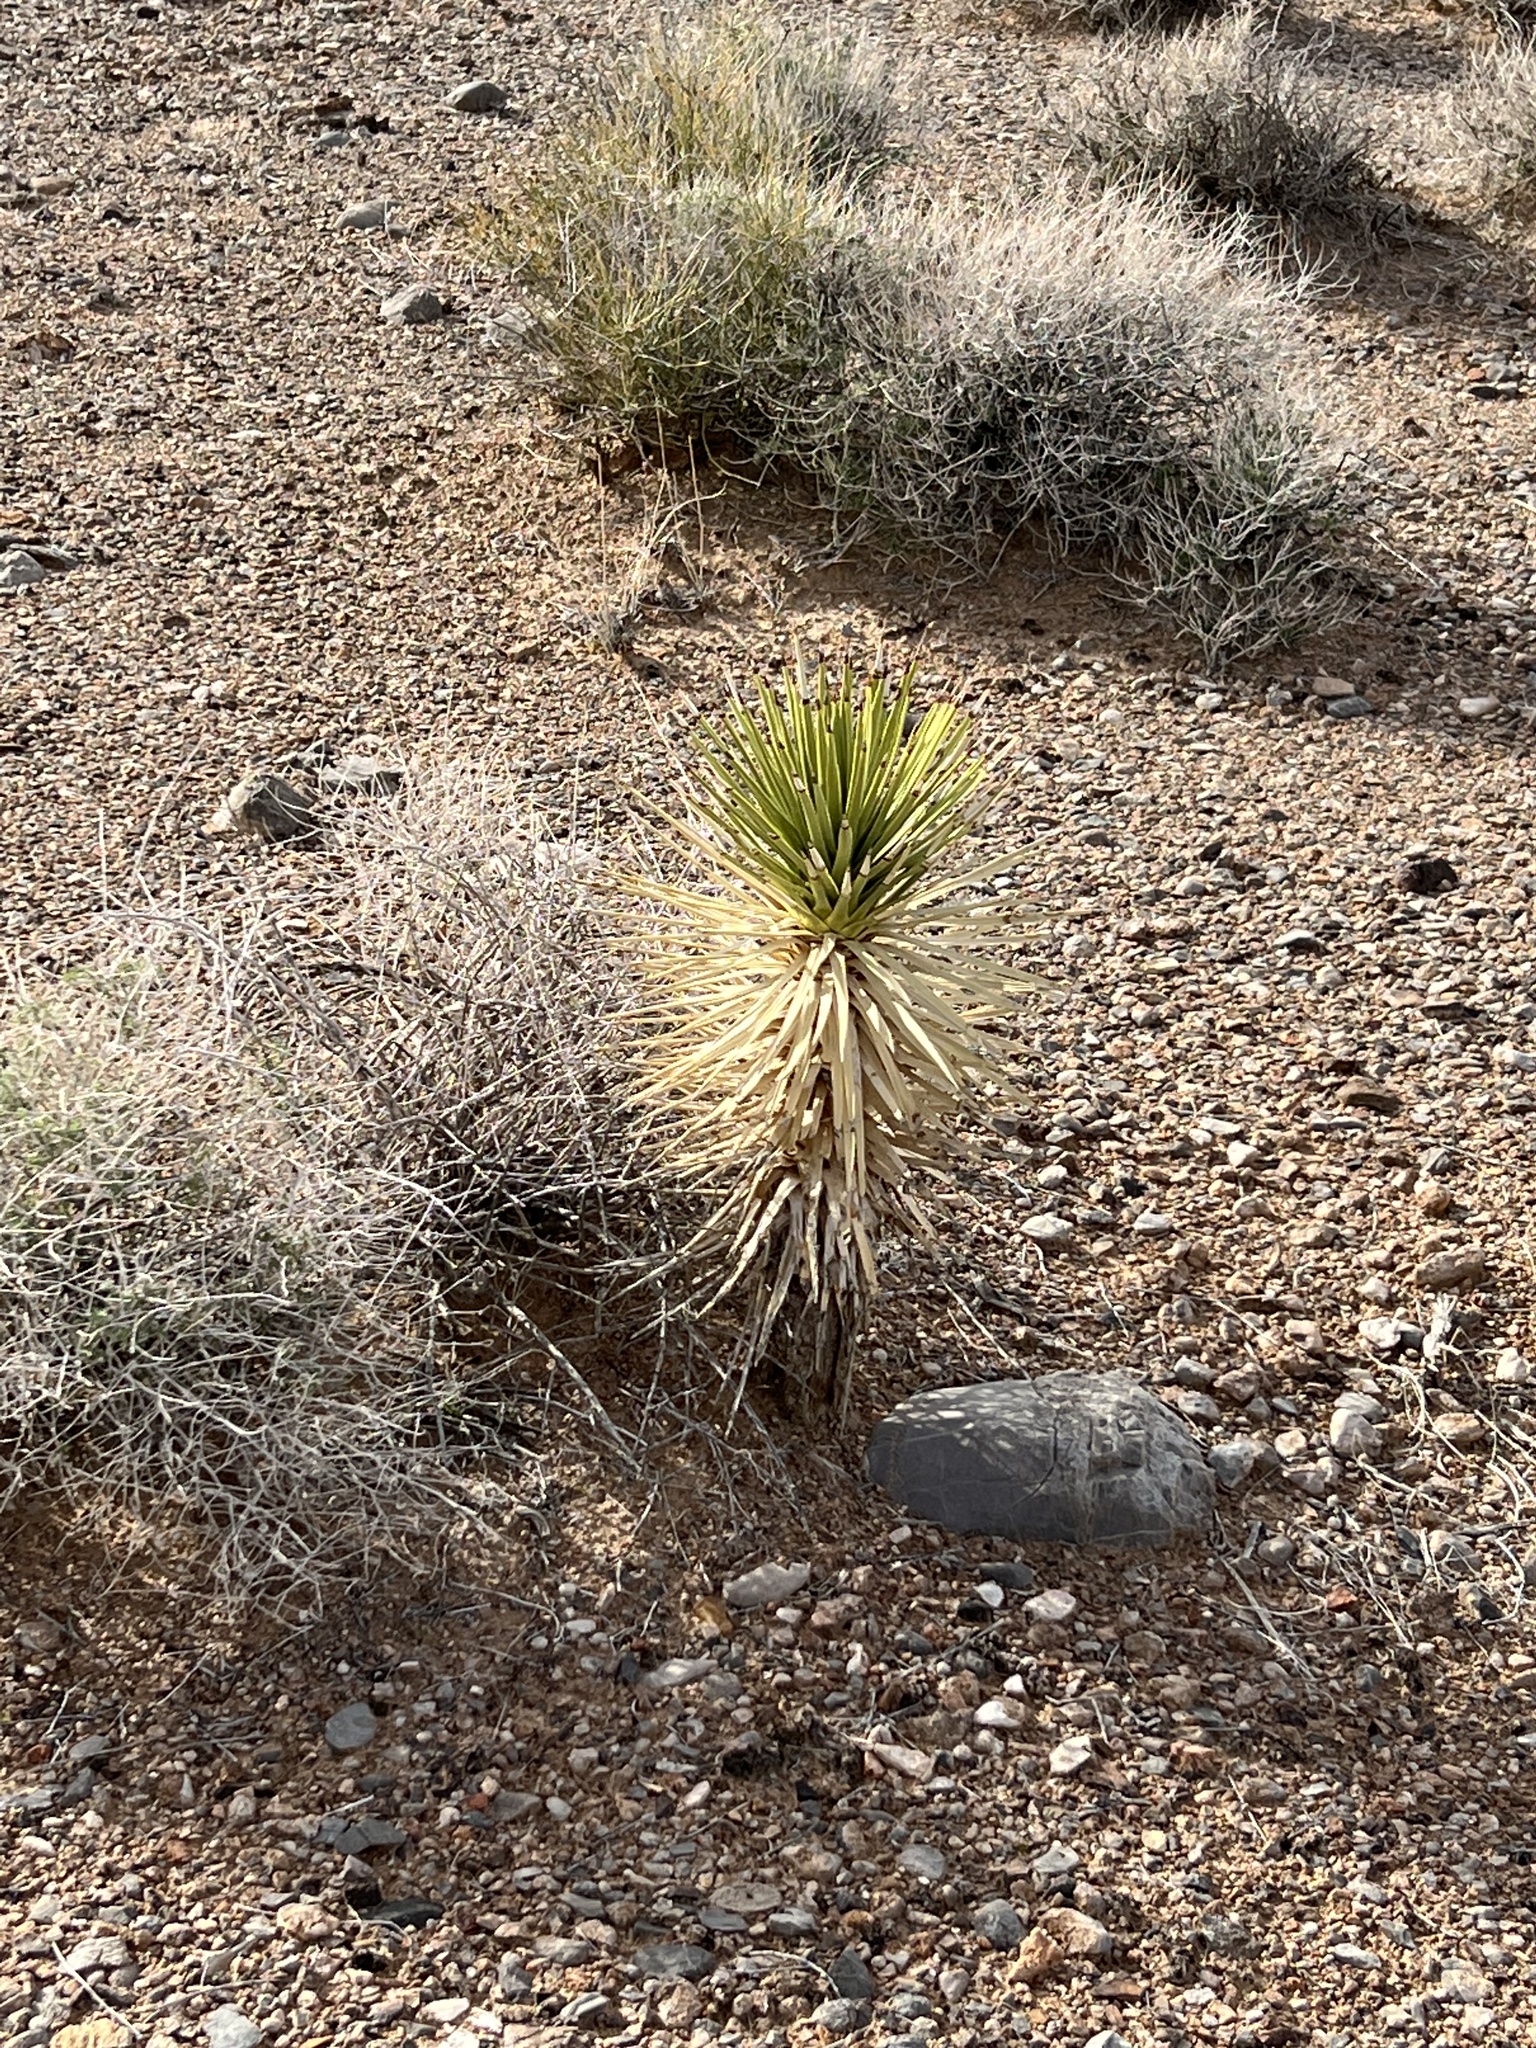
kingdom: Plantae
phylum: Tracheophyta
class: Liliopsida
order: Asparagales
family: Asparagaceae
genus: Yucca
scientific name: Yucca brevifolia
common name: Joshua tree
